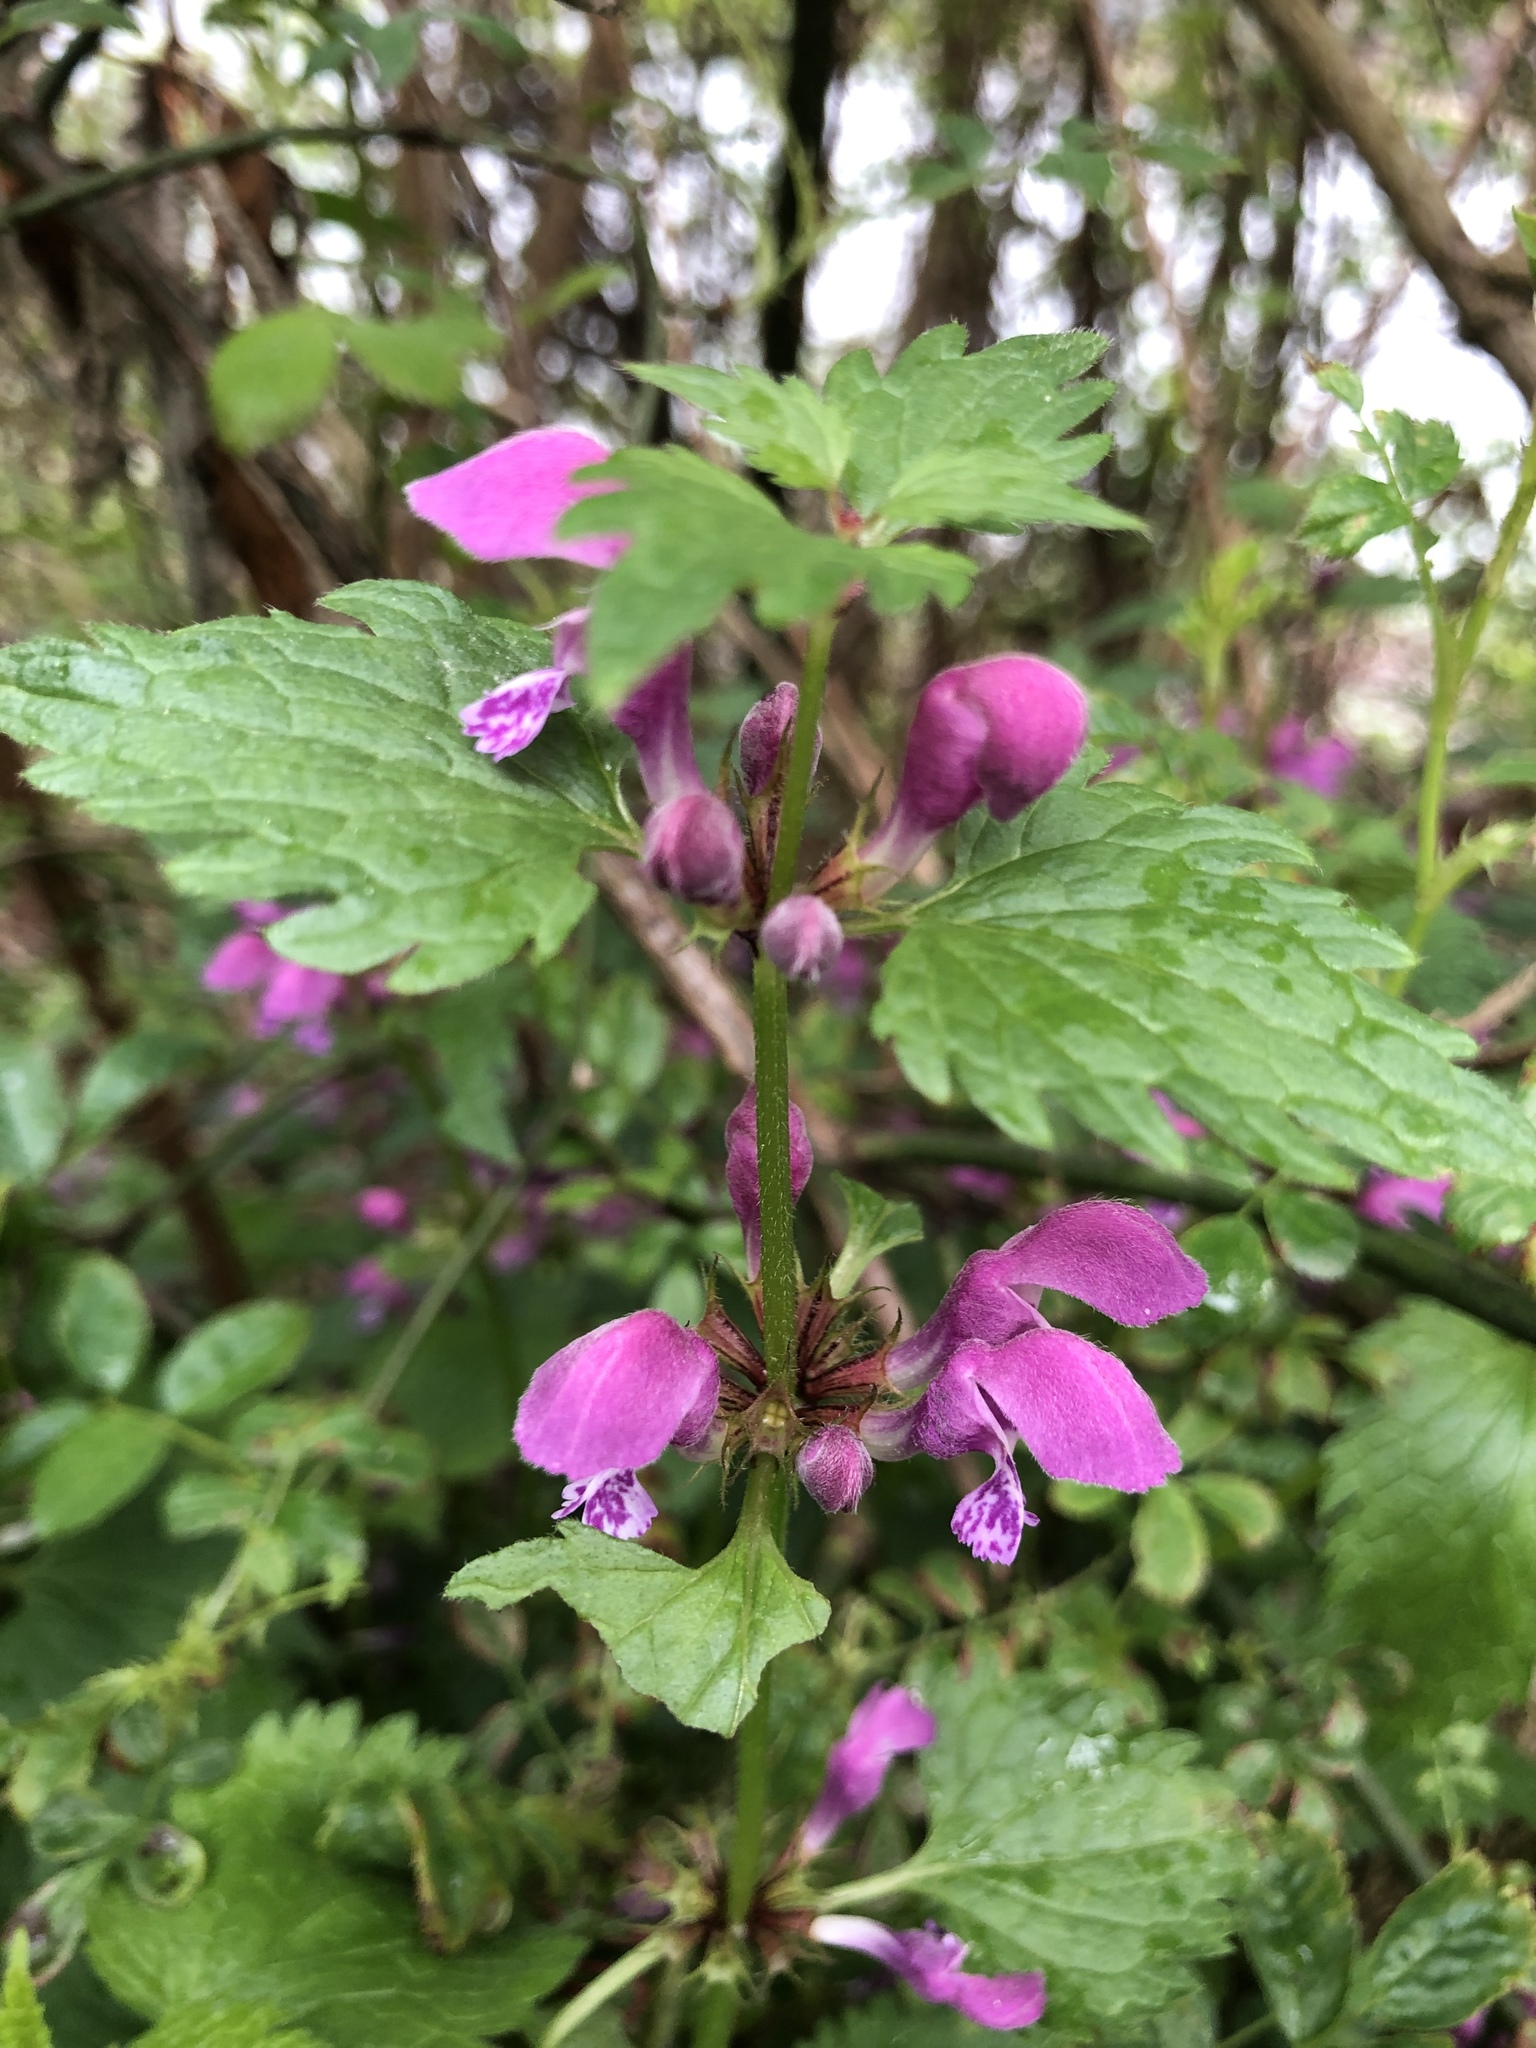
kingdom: Plantae
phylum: Tracheophyta
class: Magnoliopsida
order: Lamiales
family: Lamiaceae
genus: Lamium
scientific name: Lamium maculatum
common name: Spotted dead-nettle
